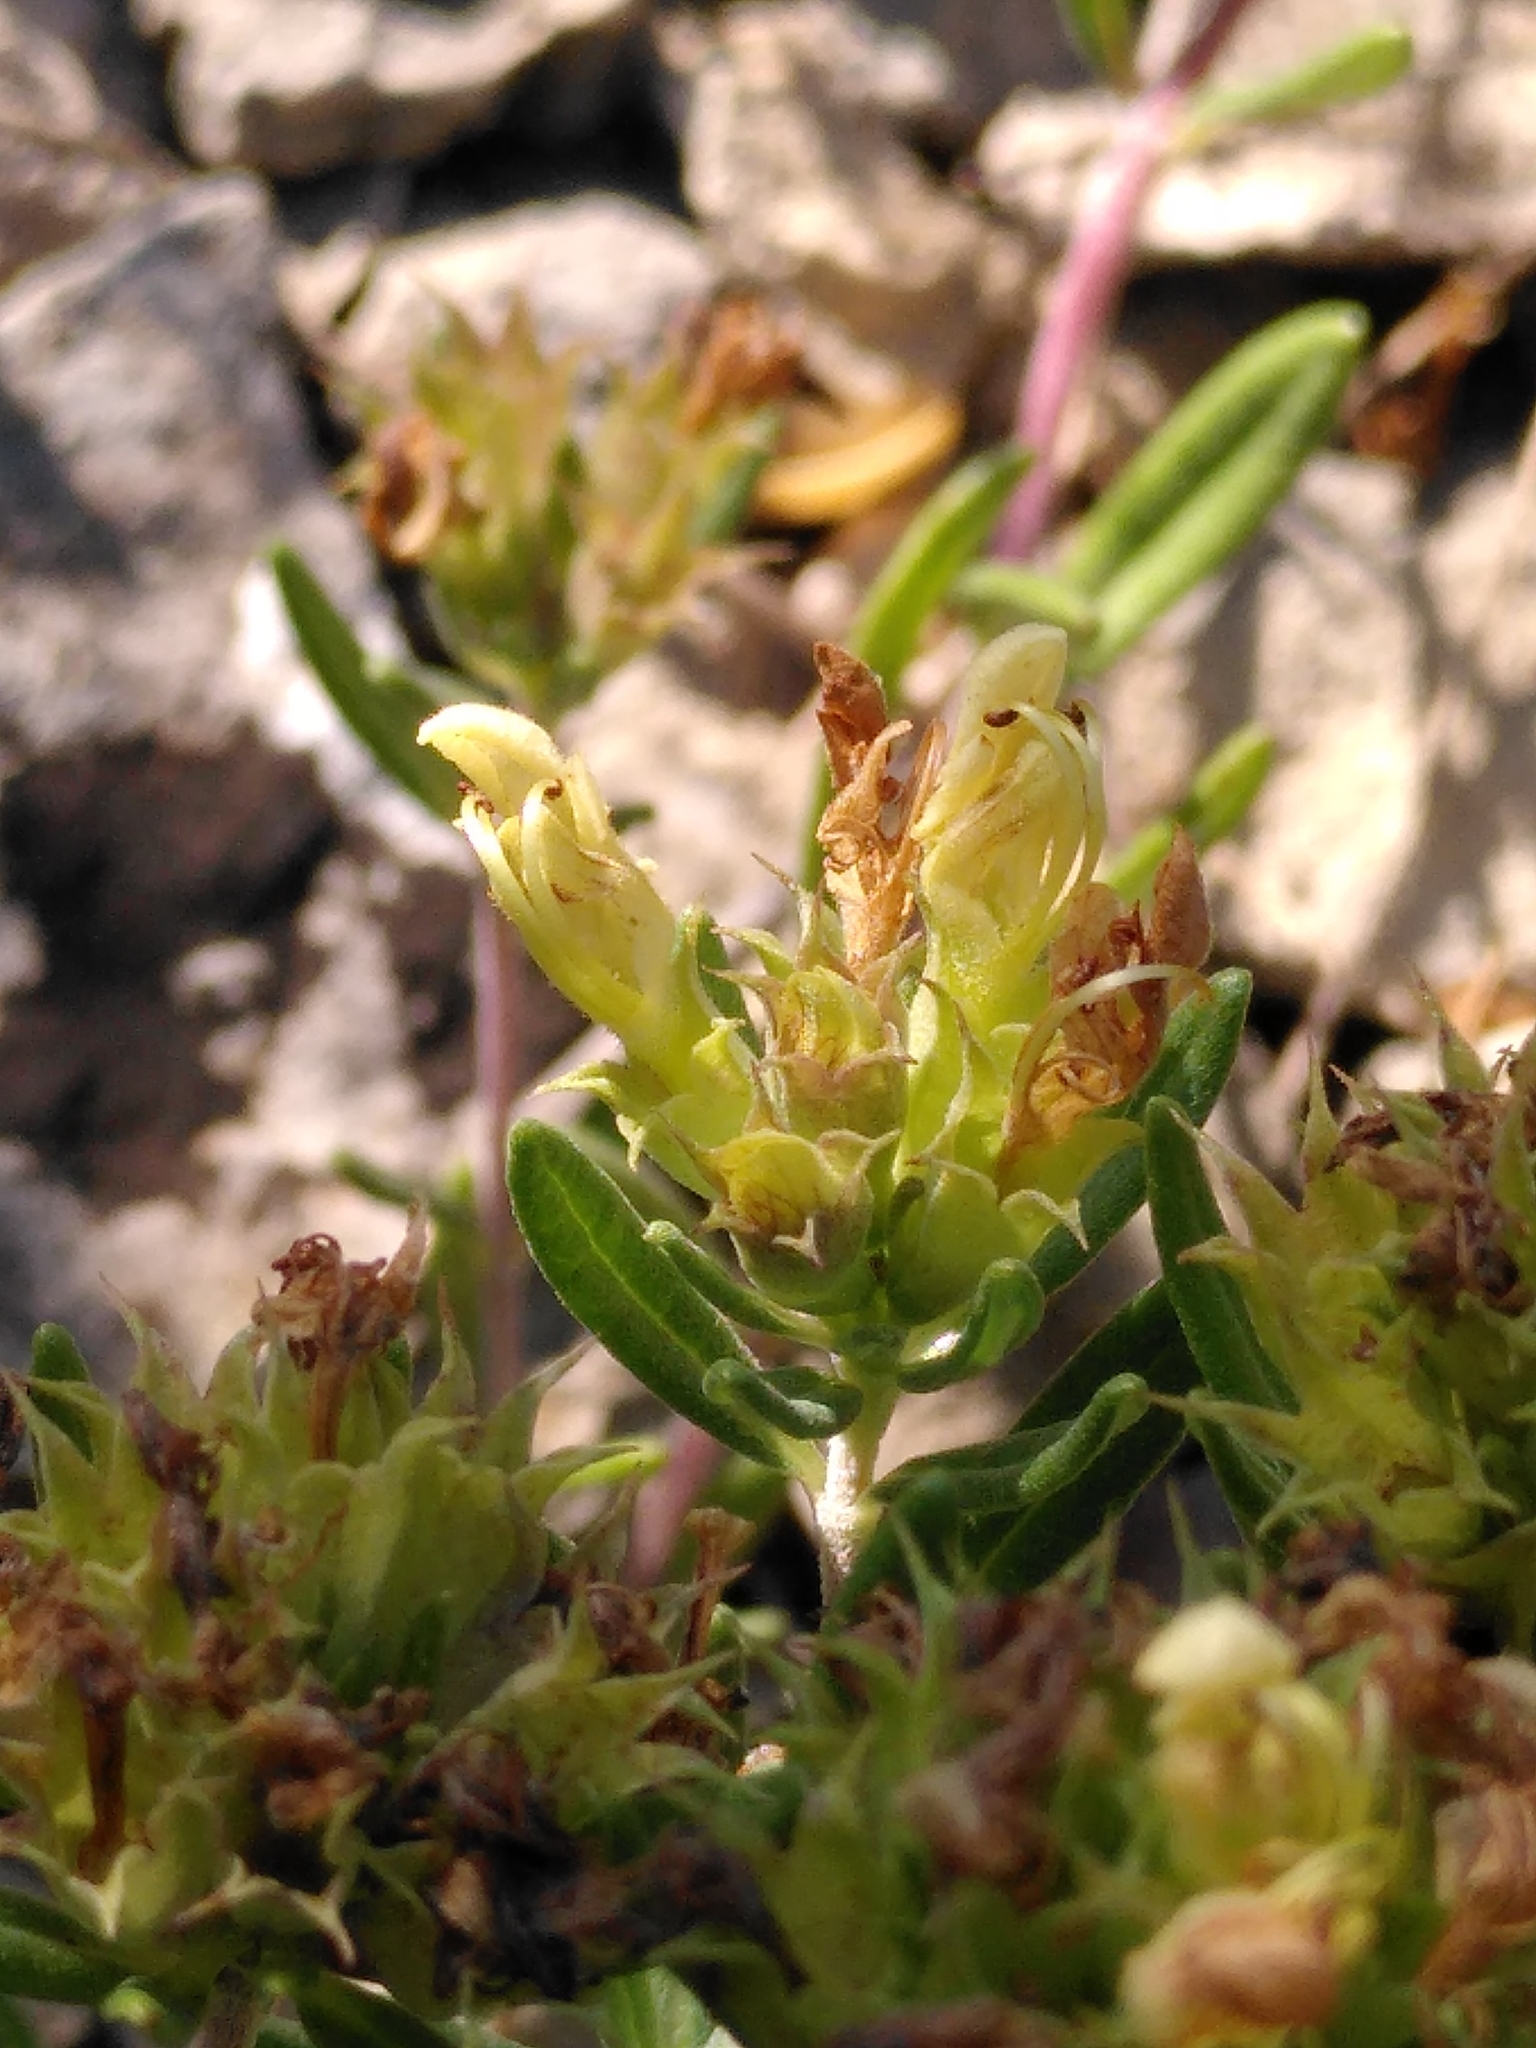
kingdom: Plantae
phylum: Tracheophyta
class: Magnoliopsida
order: Lamiales
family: Lamiaceae
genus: Teucrium
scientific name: Teucrium montanum
